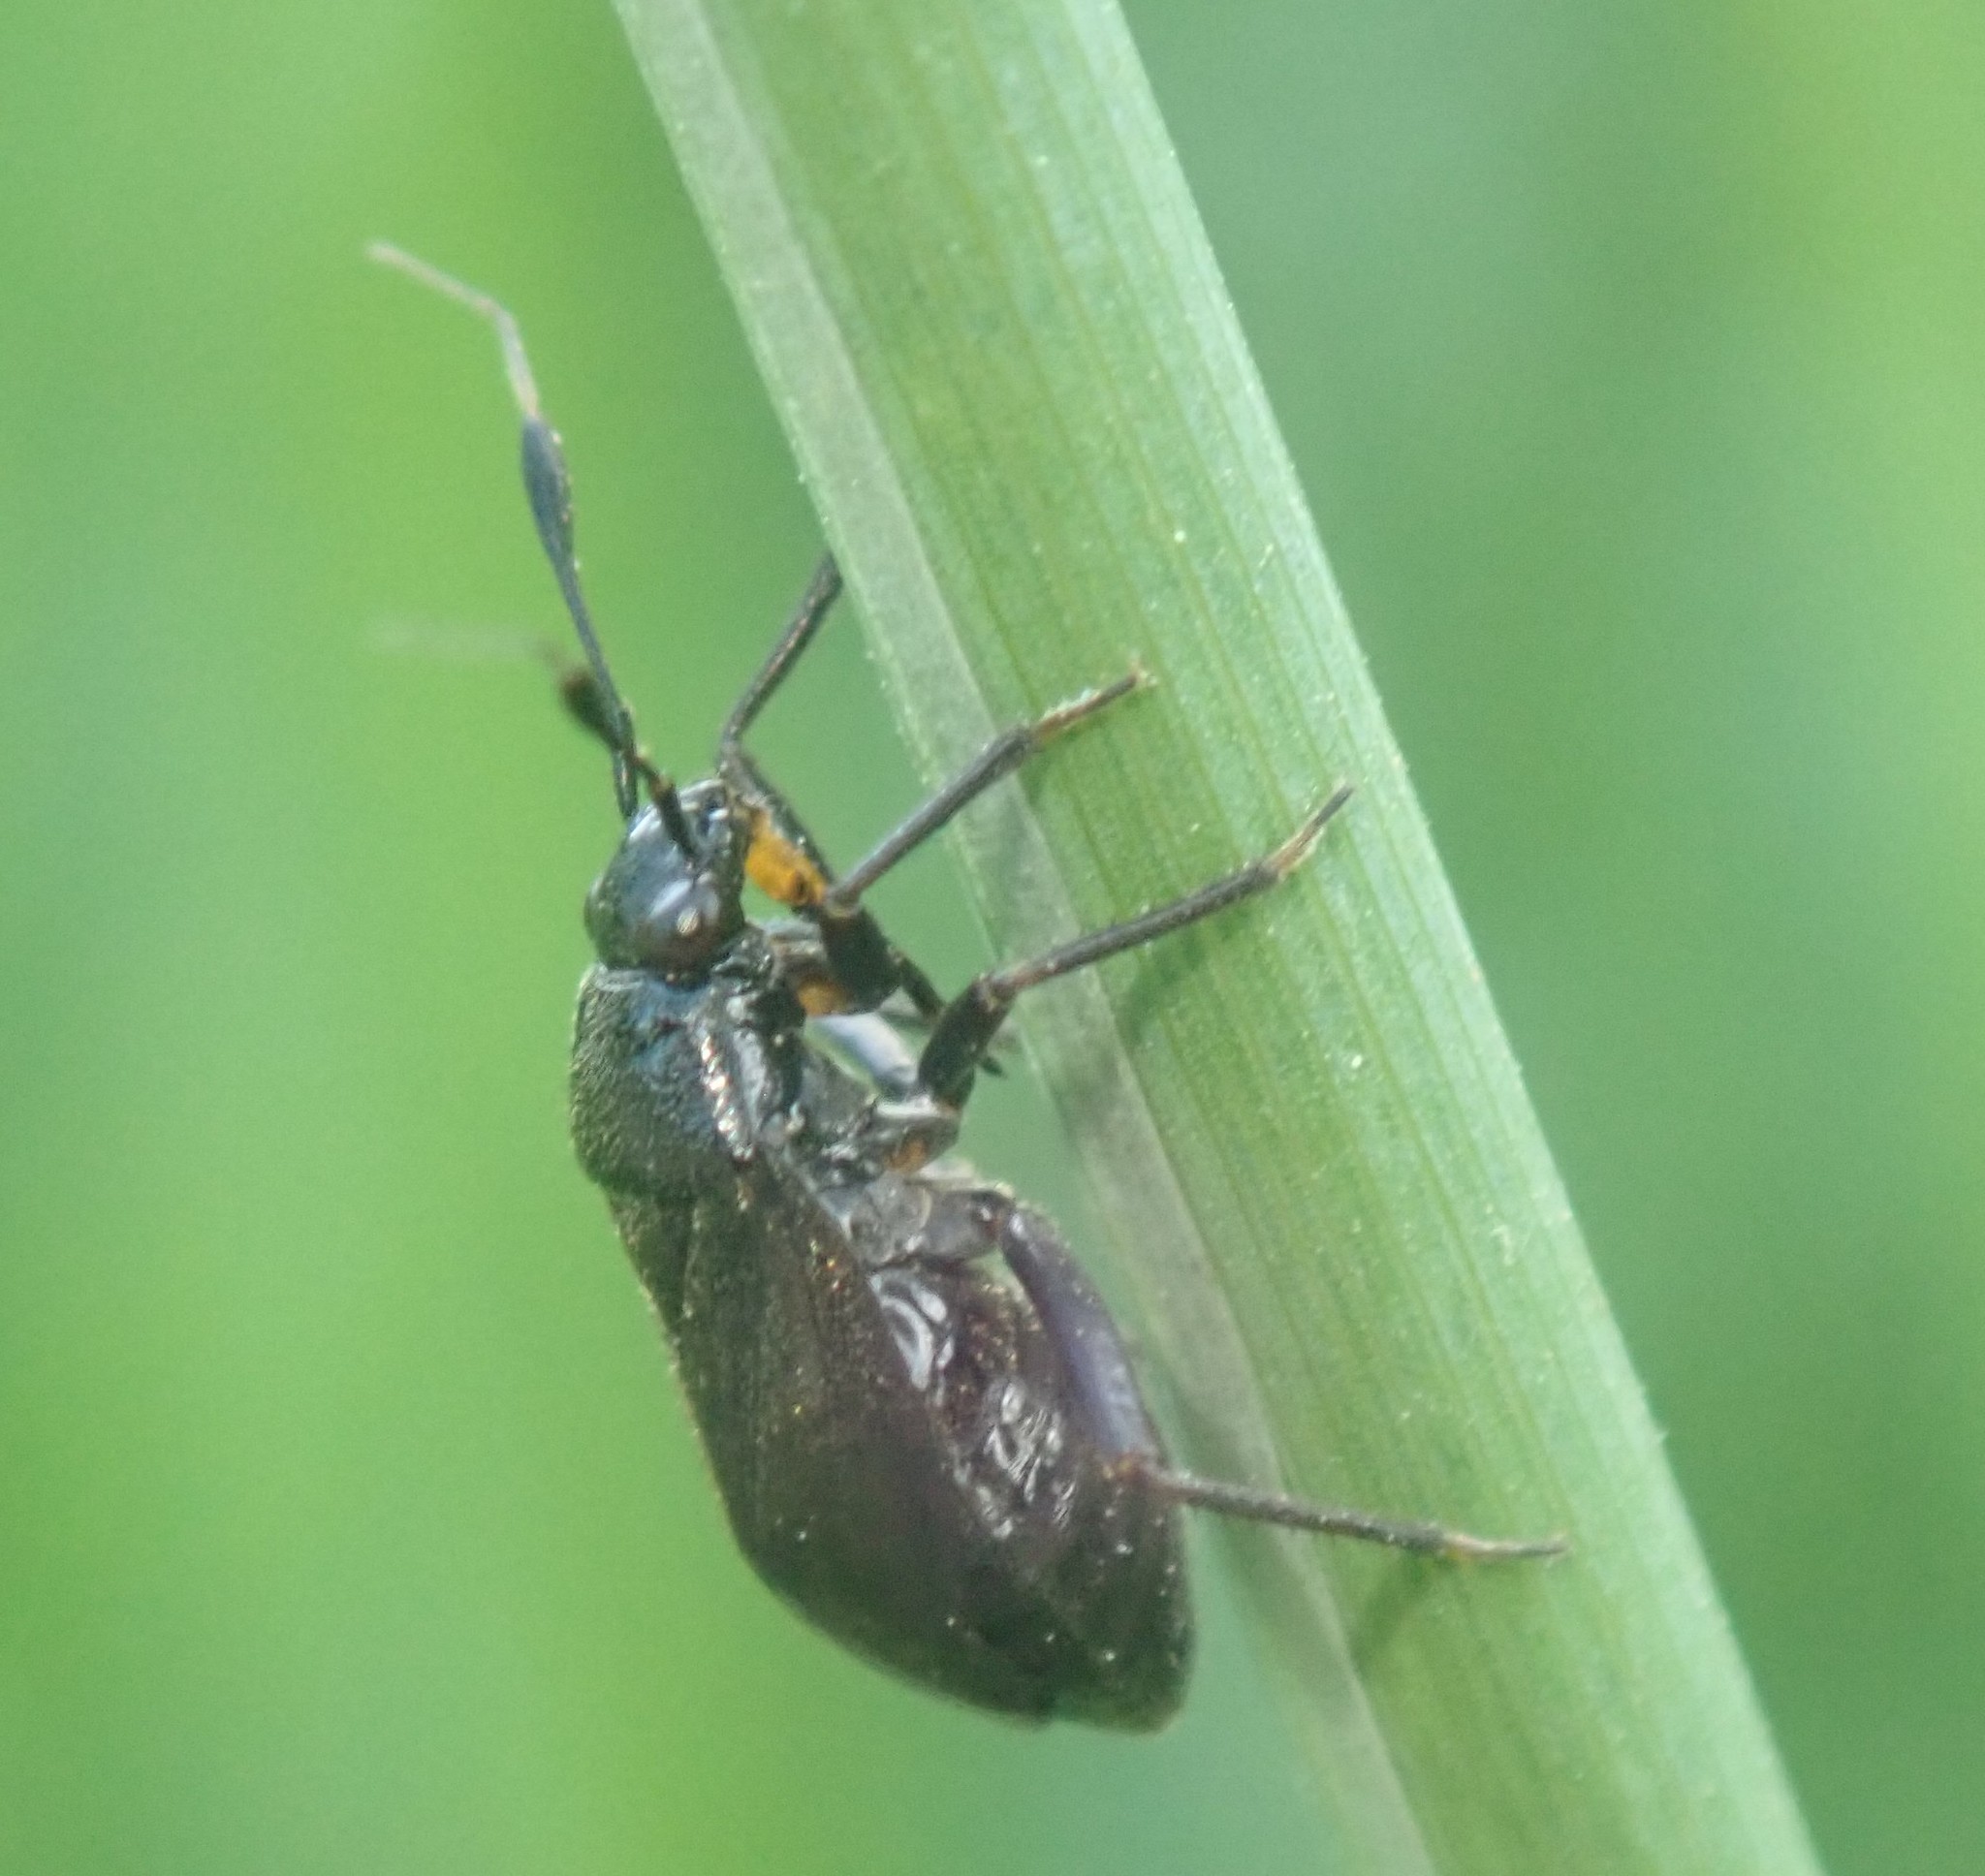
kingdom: Animalia
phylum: Arthropoda
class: Insecta
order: Hemiptera
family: Miridae
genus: Capsus
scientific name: Capsus ater
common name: Black plant bug
